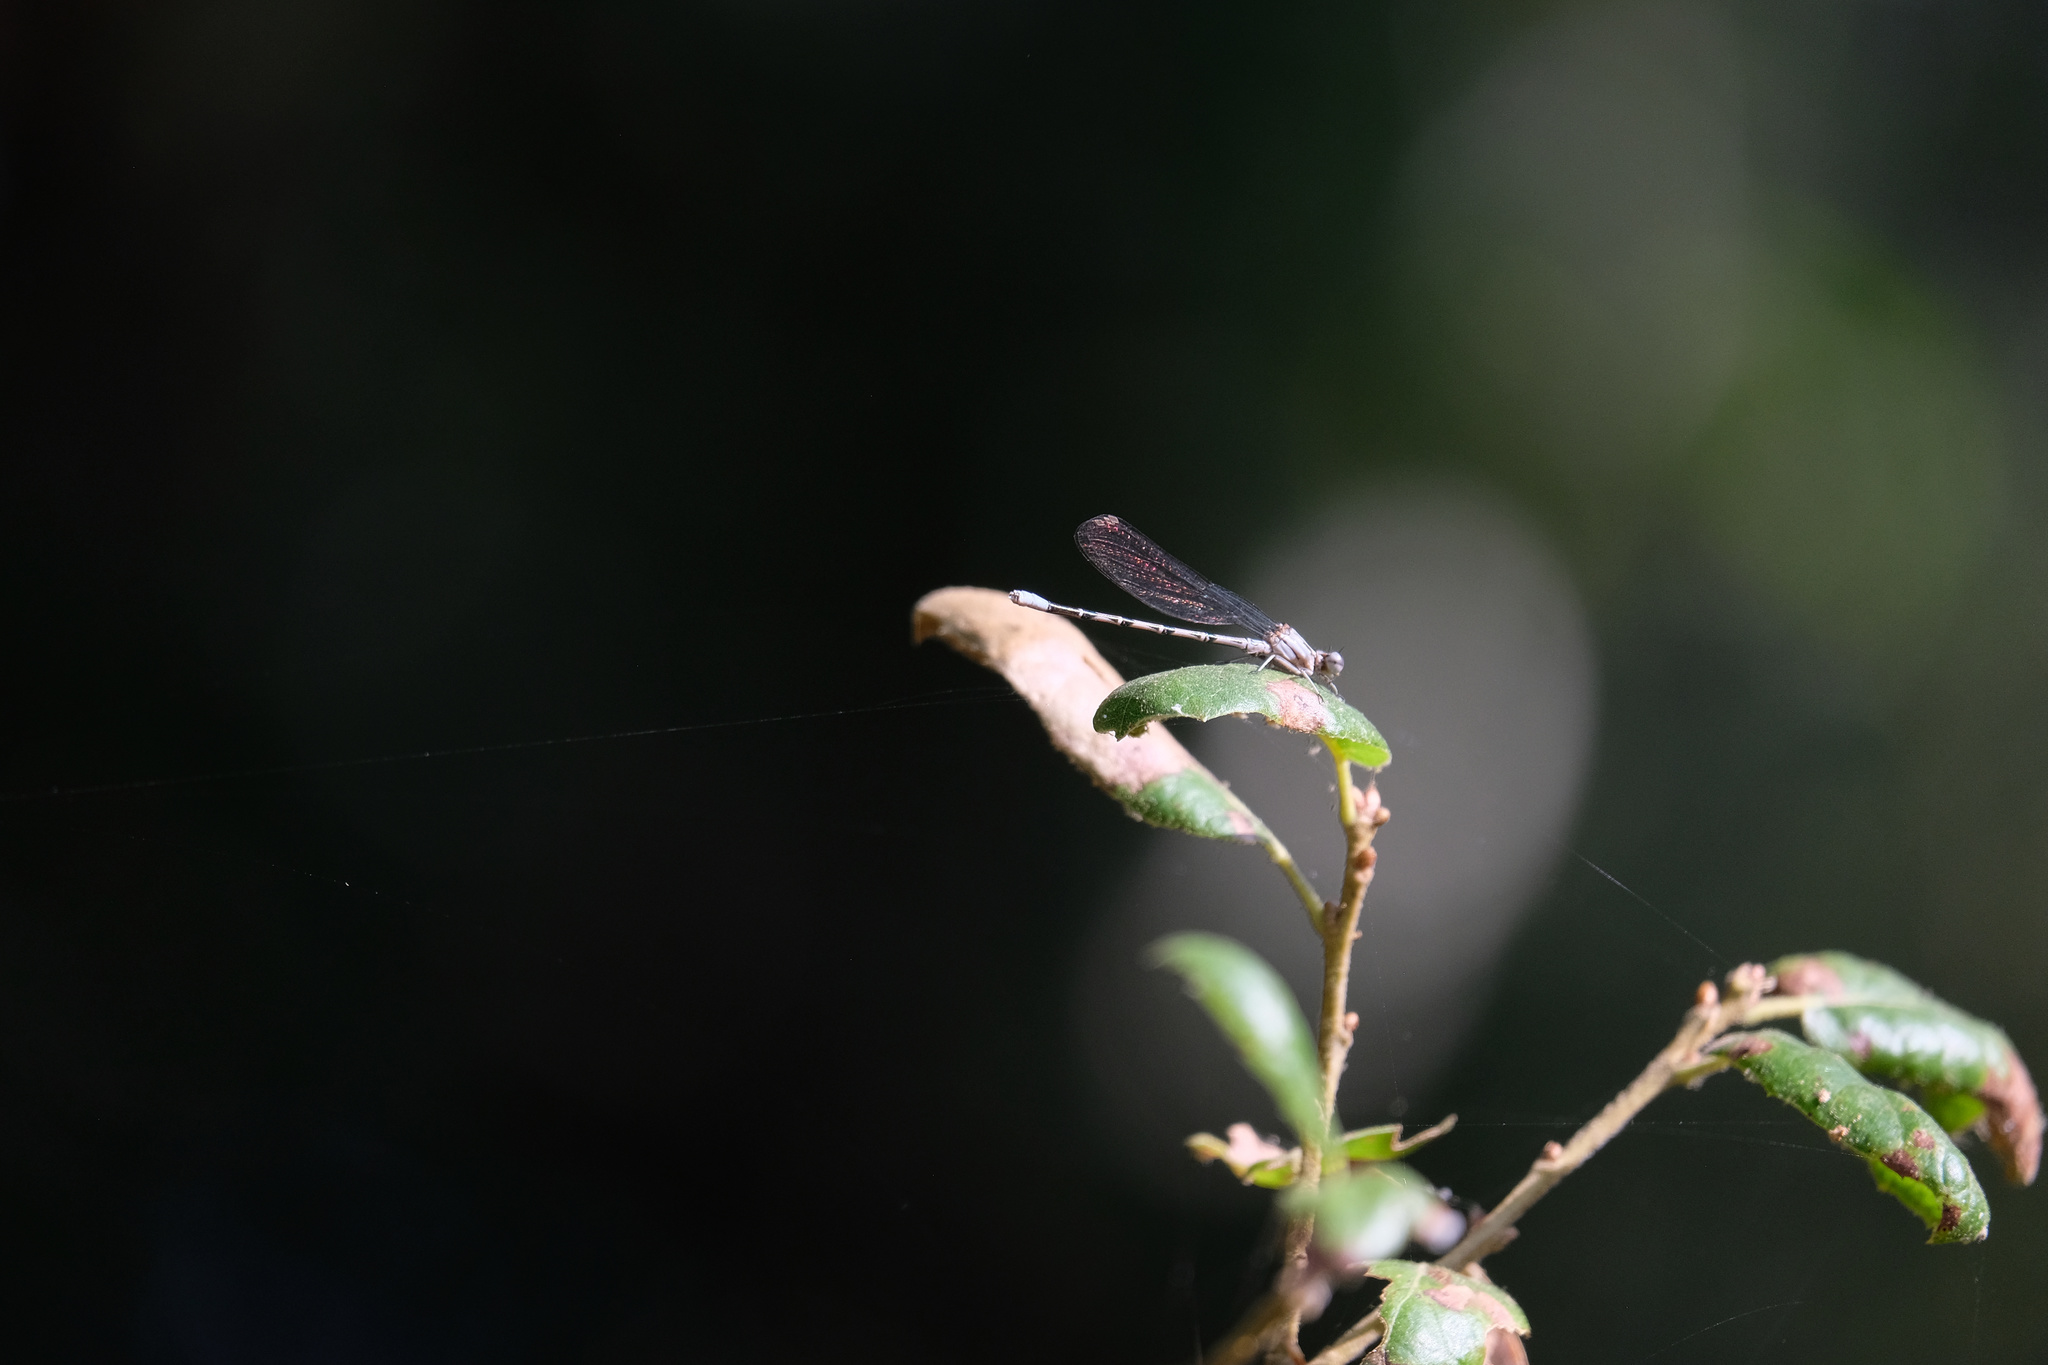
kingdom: Animalia
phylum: Arthropoda
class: Insecta
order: Odonata
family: Coenagrionidae
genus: Argia
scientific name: Argia vivida
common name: Vivid dancer
